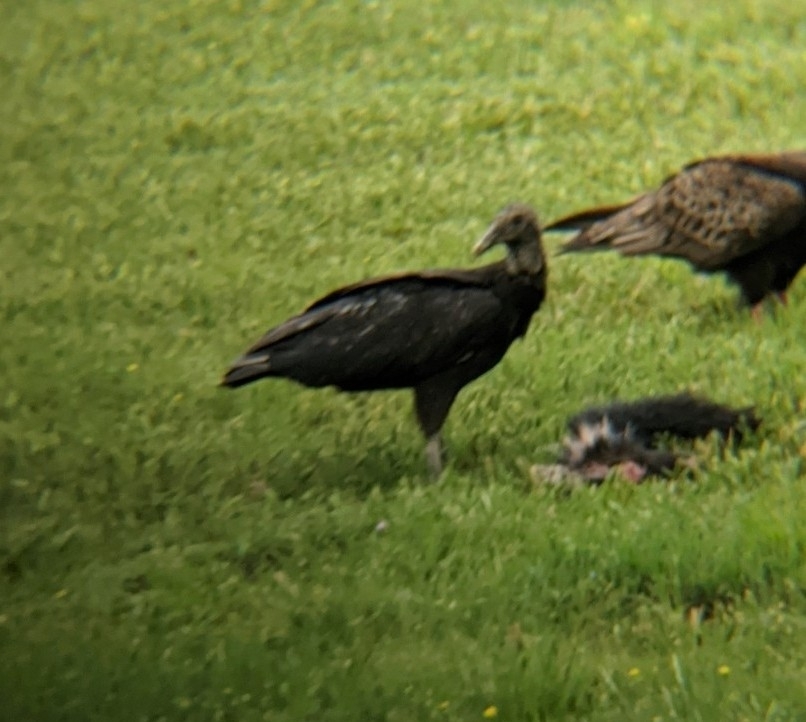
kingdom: Animalia
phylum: Chordata
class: Aves
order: Accipitriformes
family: Cathartidae
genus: Coragyps
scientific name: Coragyps atratus
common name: Black vulture
